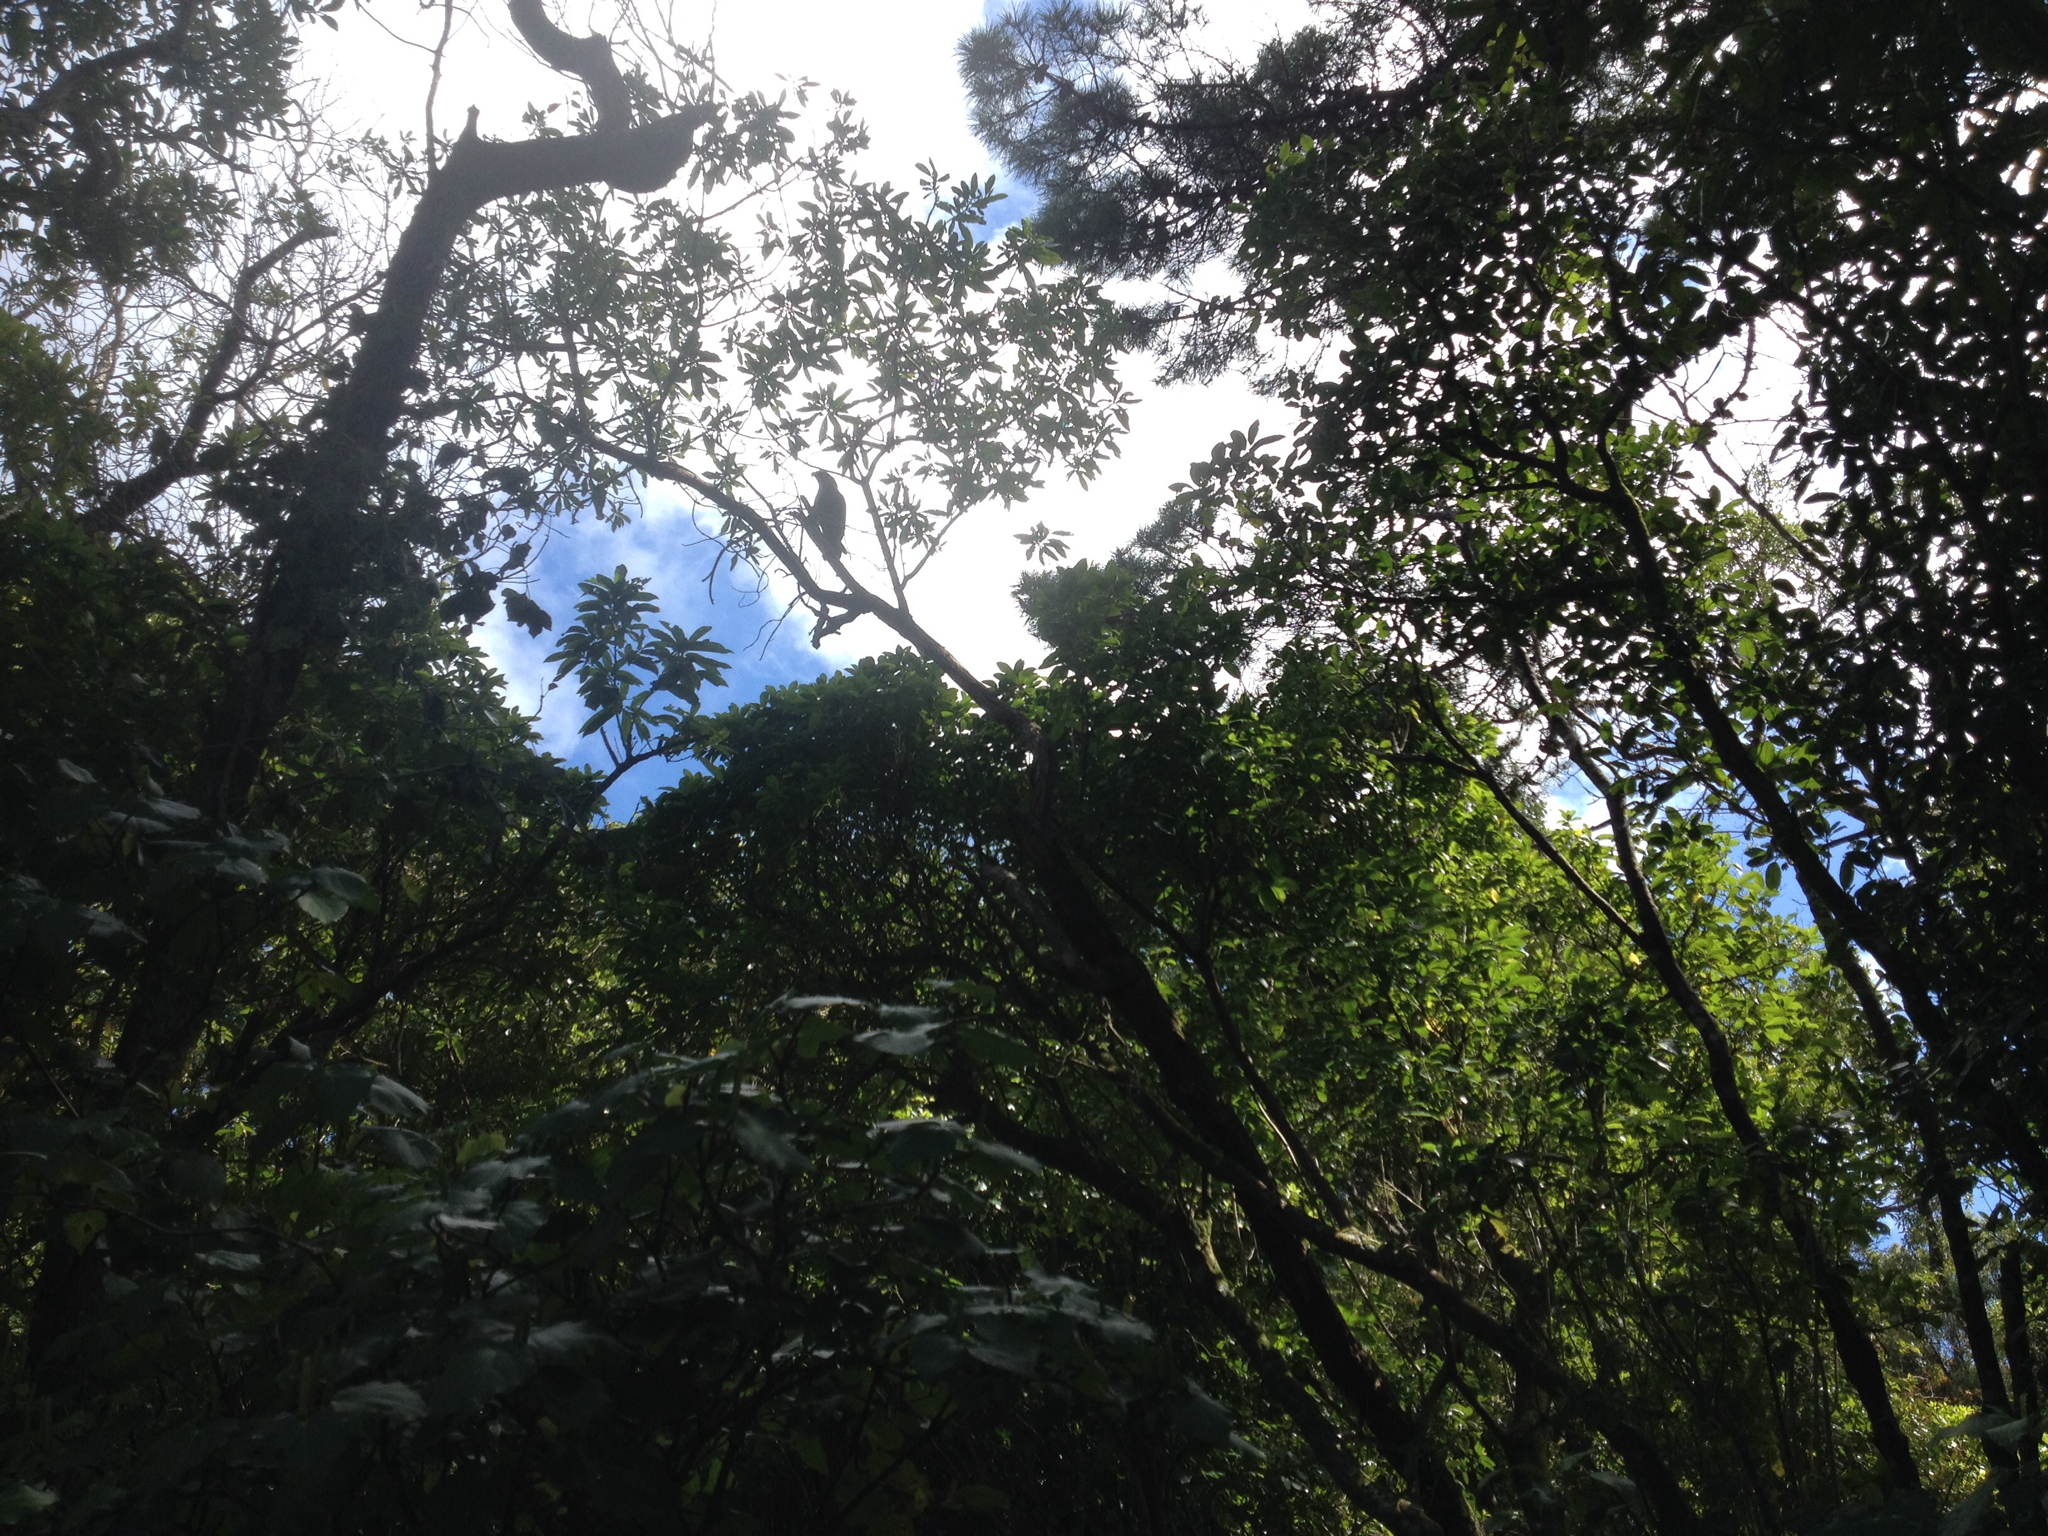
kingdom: Animalia
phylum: Chordata
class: Aves
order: Psittaciformes
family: Psittacidae
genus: Nestor
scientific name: Nestor meridionalis
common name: New zealand kaka
